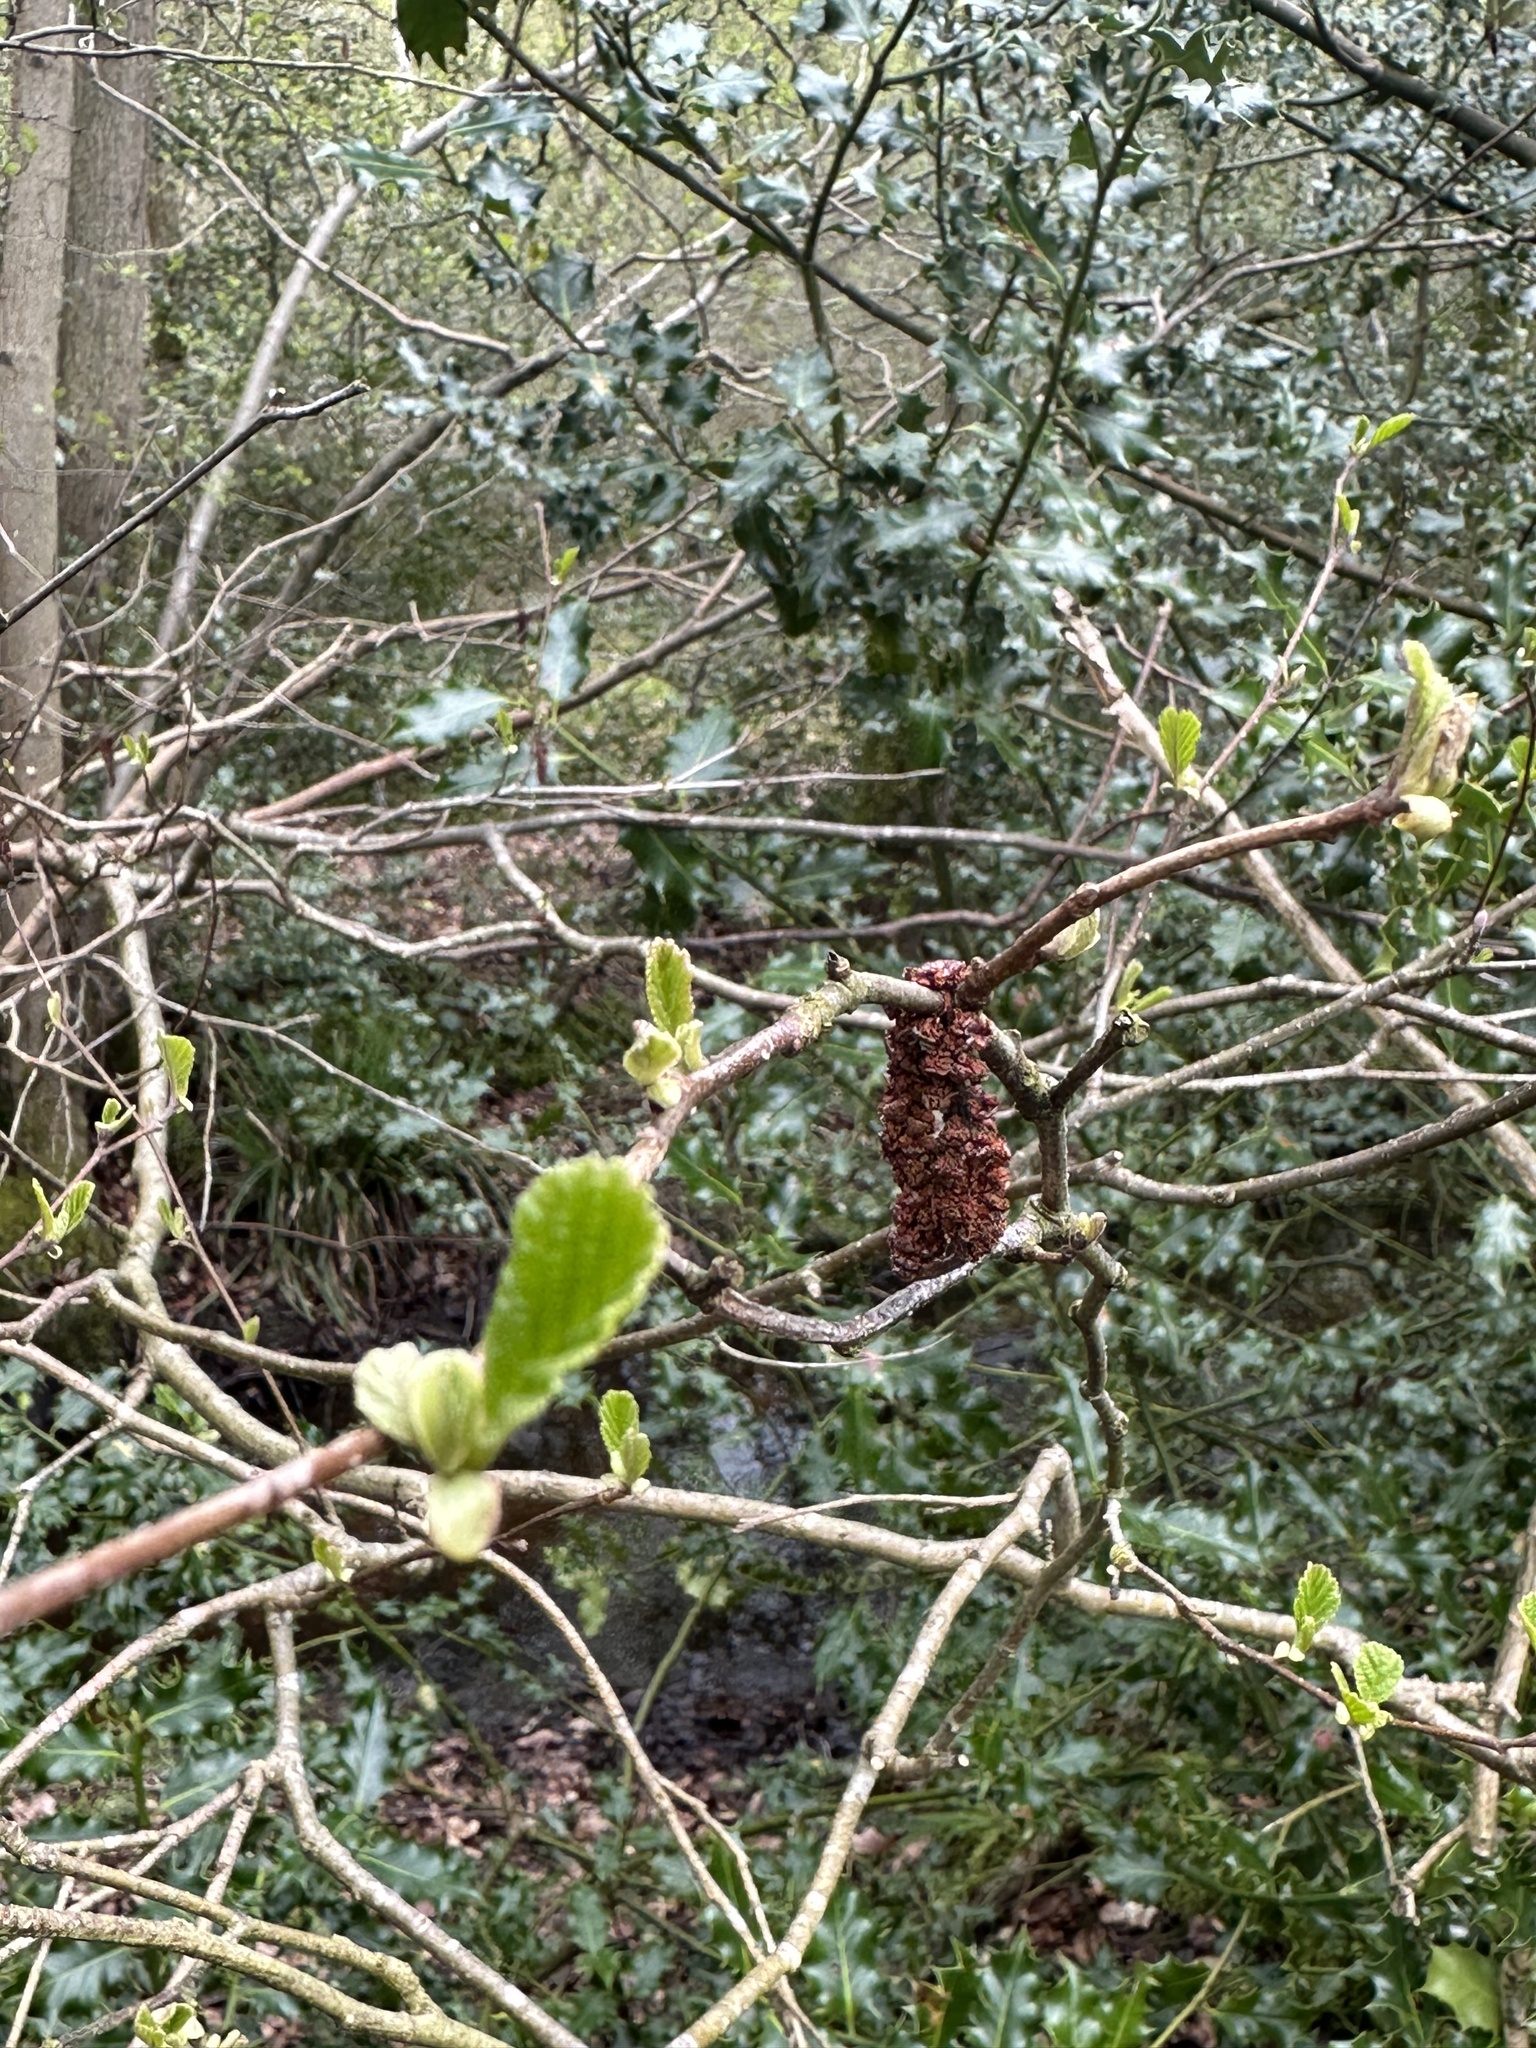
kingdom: Plantae
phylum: Tracheophyta
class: Magnoliopsida
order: Fagales
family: Betulaceae
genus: Alnus
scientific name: Alnus glutinosa
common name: Black alder
